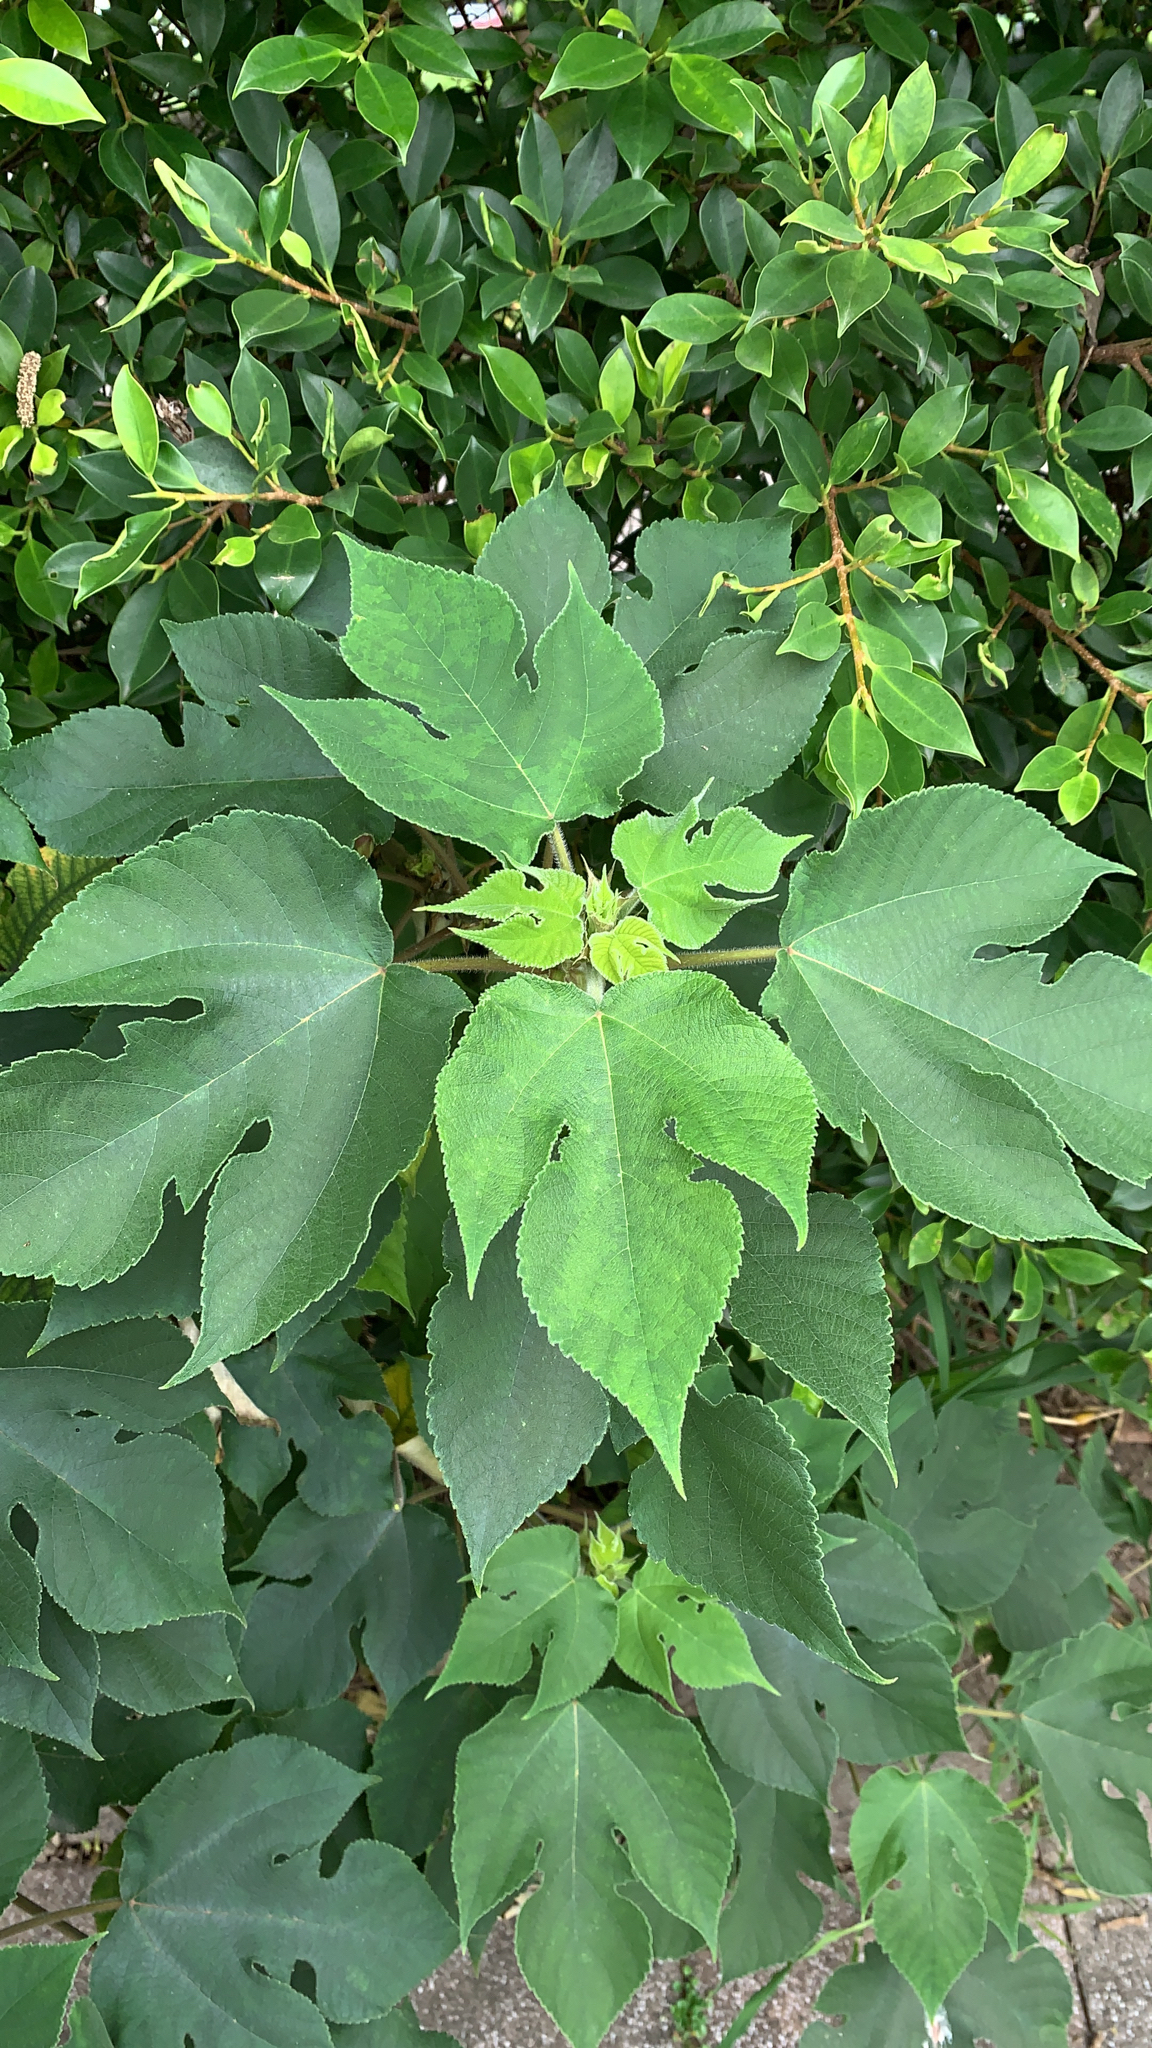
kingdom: Plantae
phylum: Tracheophyta
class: Magnoliopsida
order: Rosales
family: Moraceae
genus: Broussonetia
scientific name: Broussonetia papyrifera
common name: Paper mulberry
